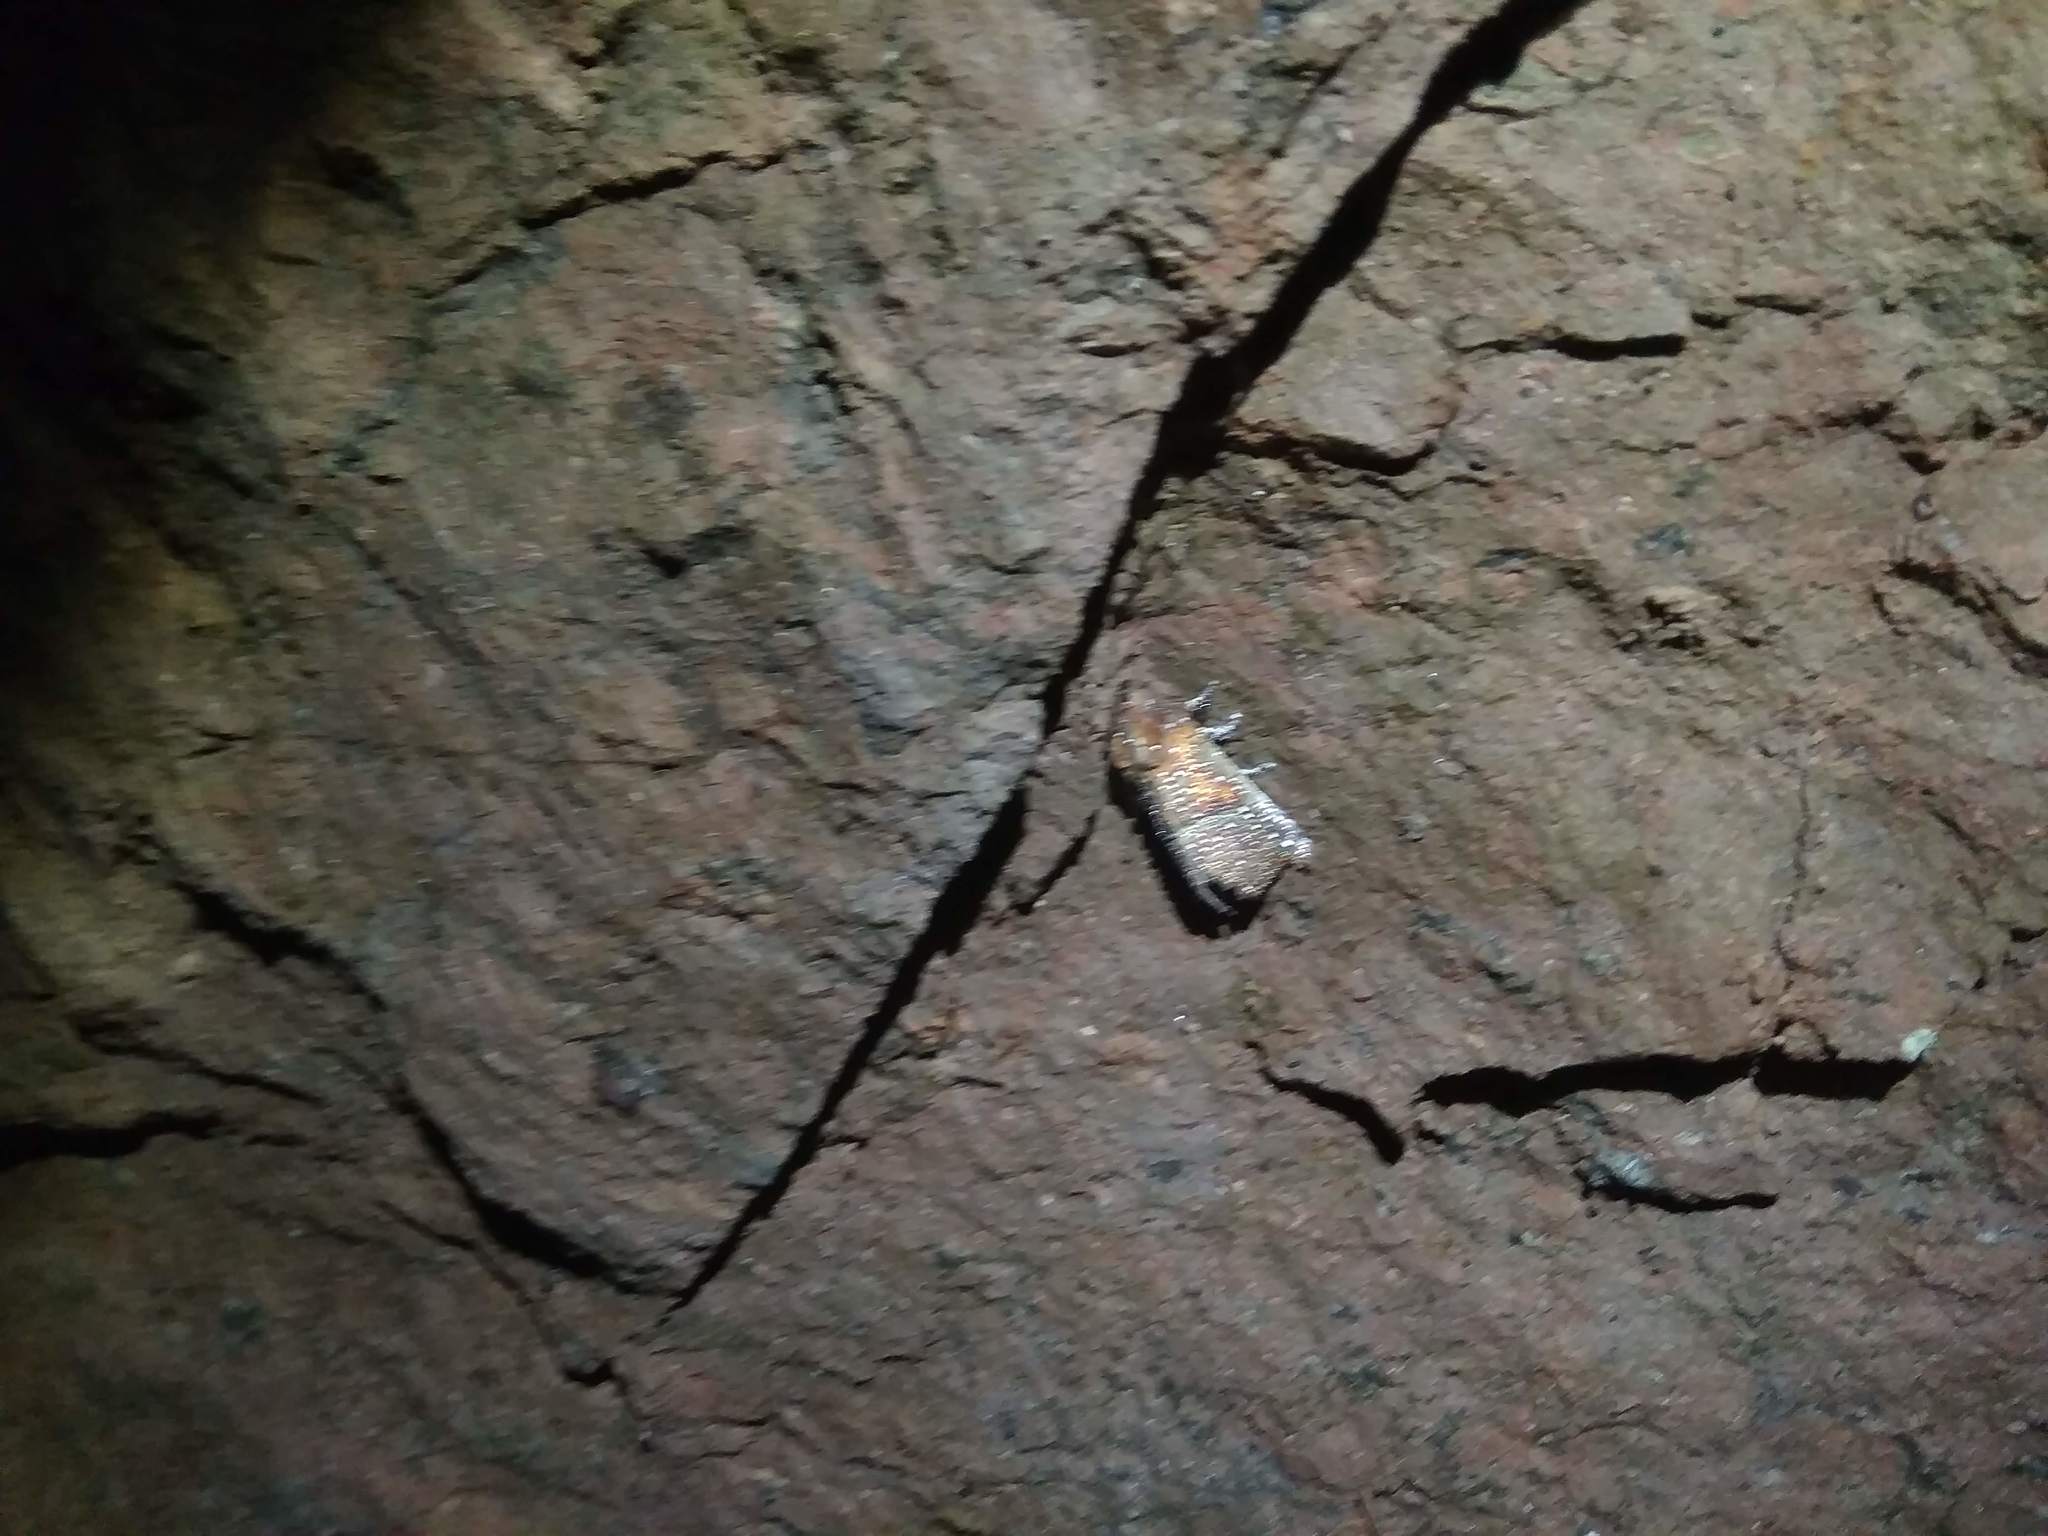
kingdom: Animalia
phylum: Arthropoda
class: Insecta
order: Lepidoptera
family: Erebidae
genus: Scoliopteryx
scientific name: Scoliopteryx libatrix
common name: Herald
